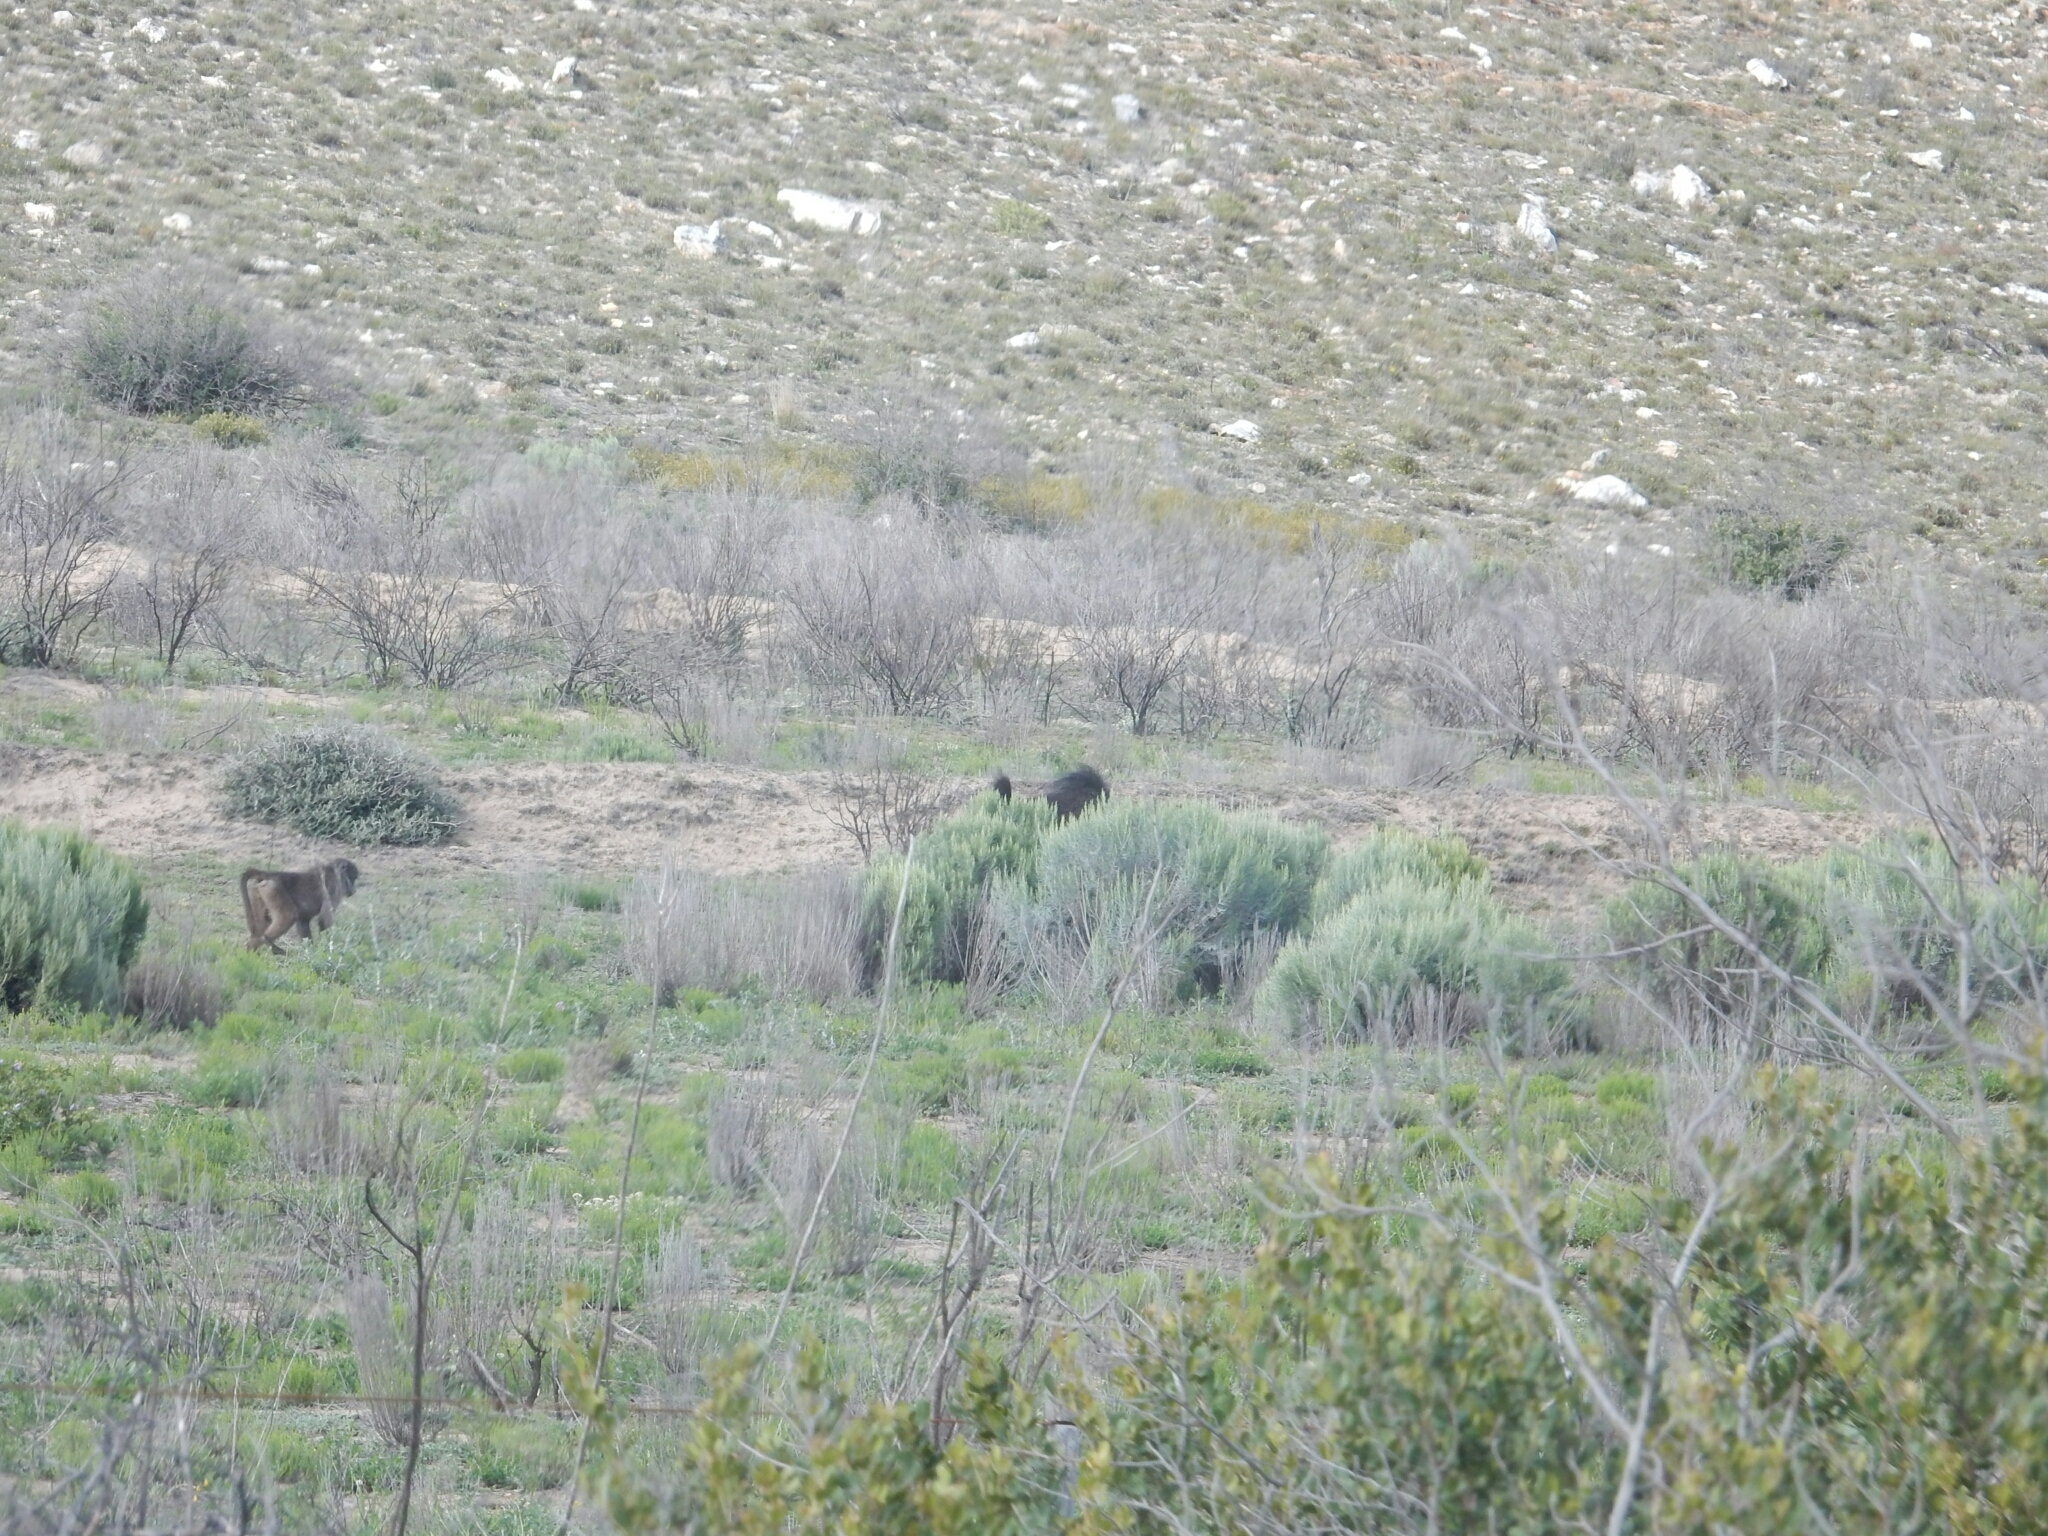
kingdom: Animalia
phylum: Chordata
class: Mammalia
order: Primates
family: Cercopithecidae
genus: Papio
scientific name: Papio ursinus
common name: Chacma baboon
